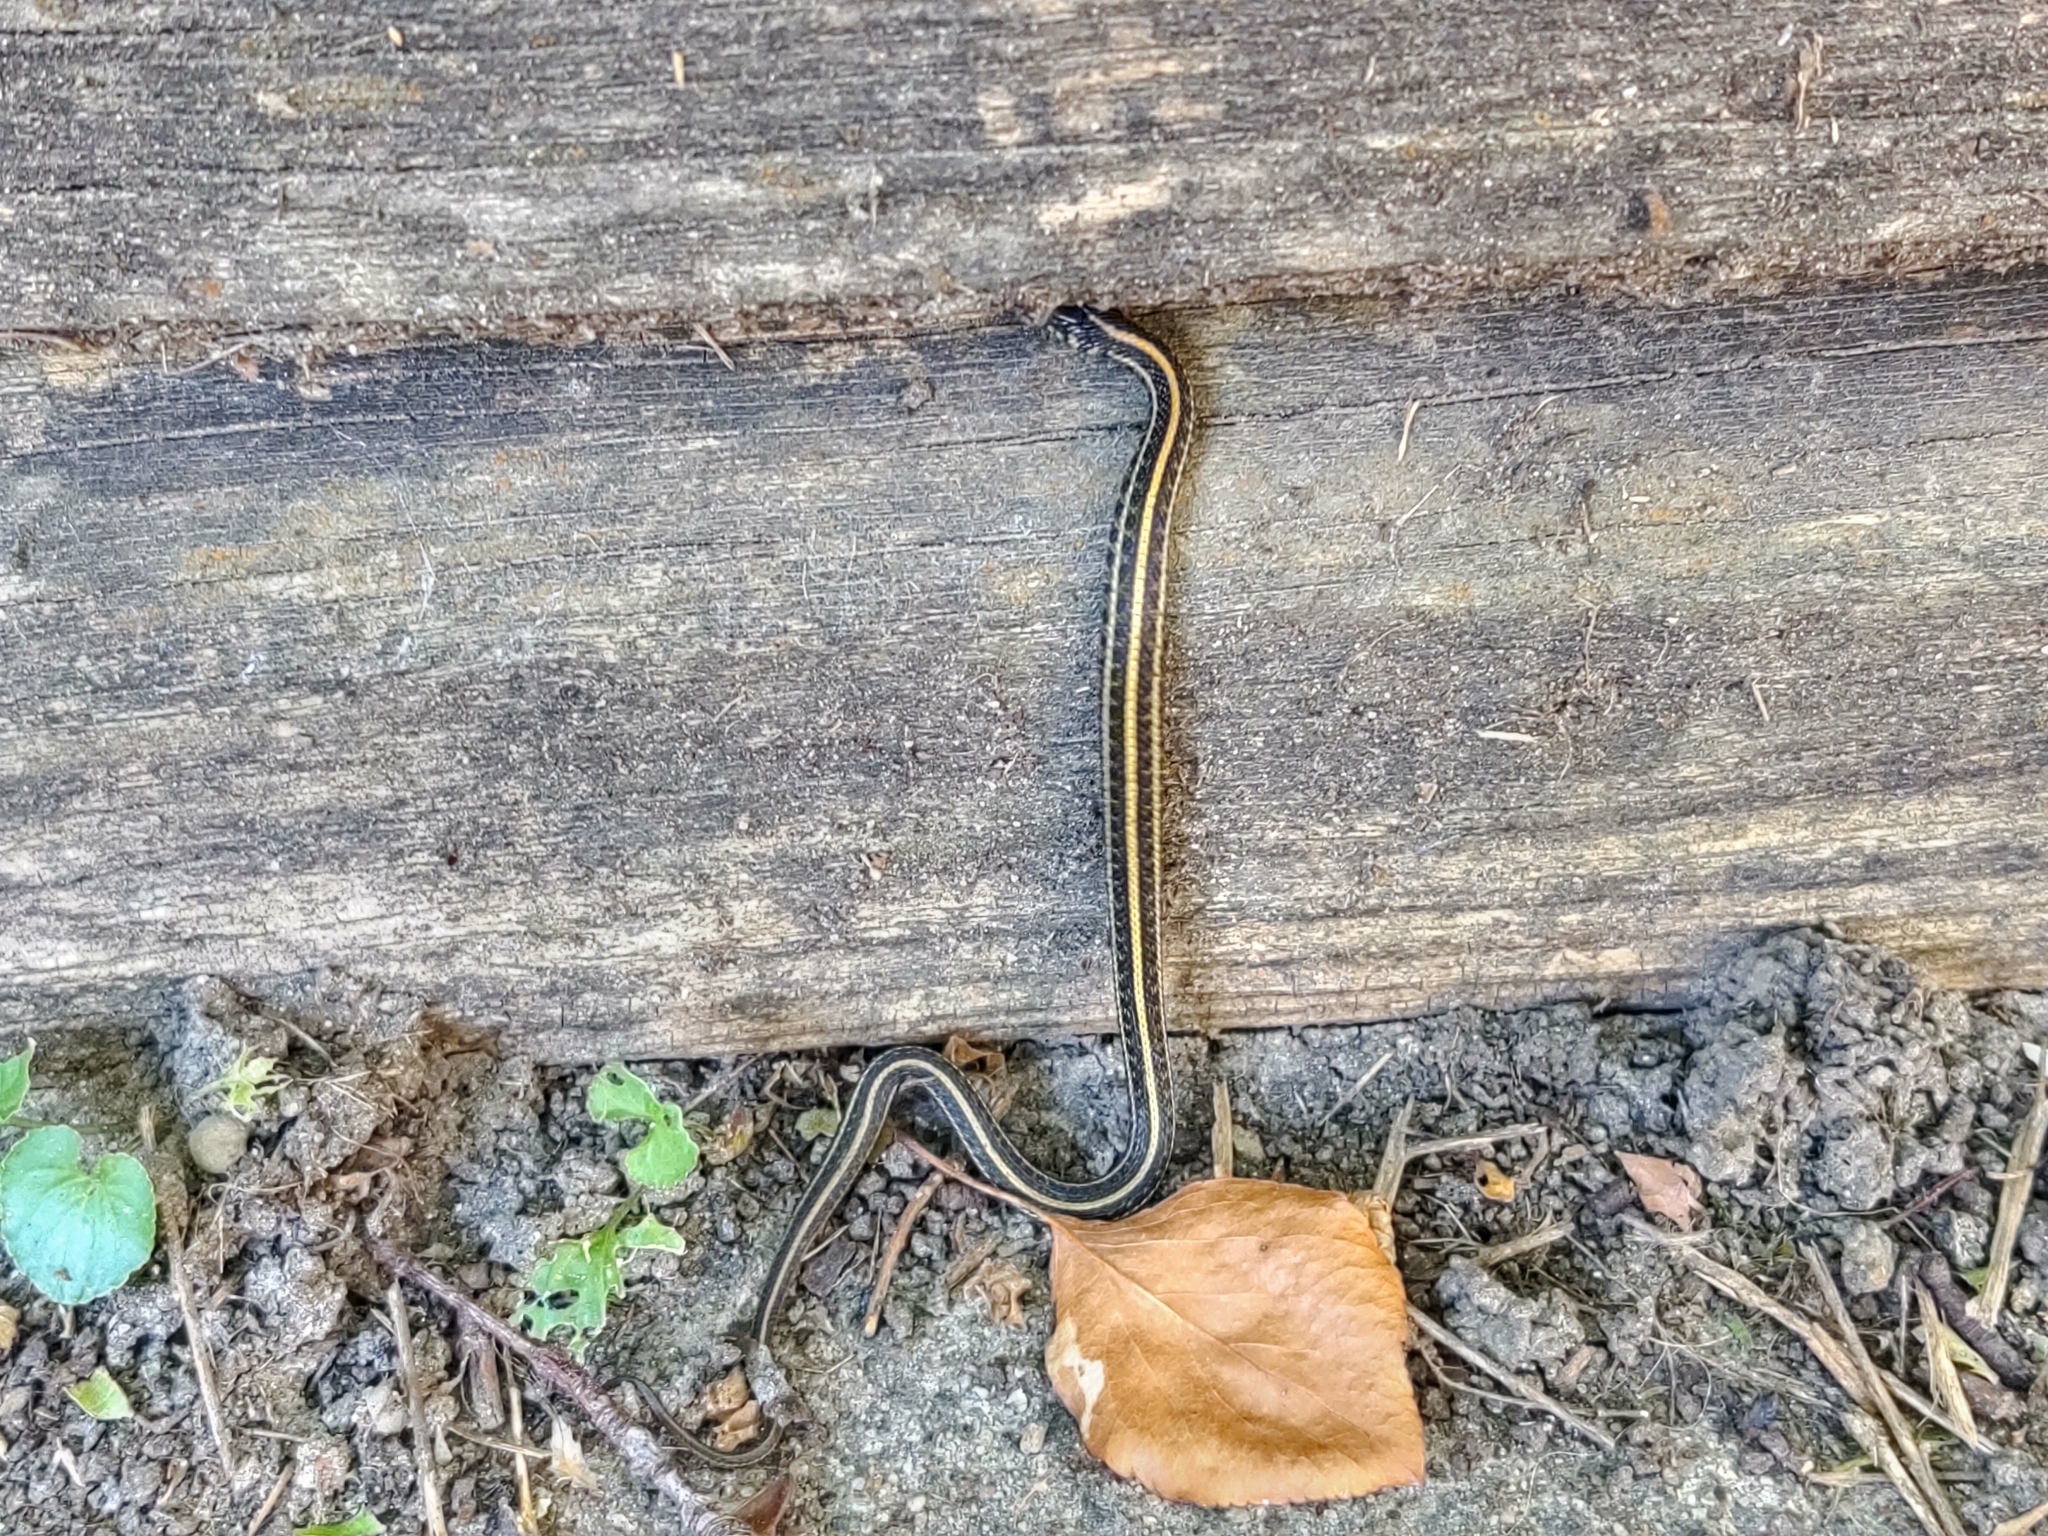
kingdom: Animalia
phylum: Chordata
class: Squamata
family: Colubridae
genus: Thamnophis
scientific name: Thamnophis radix
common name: Plains garter snake
